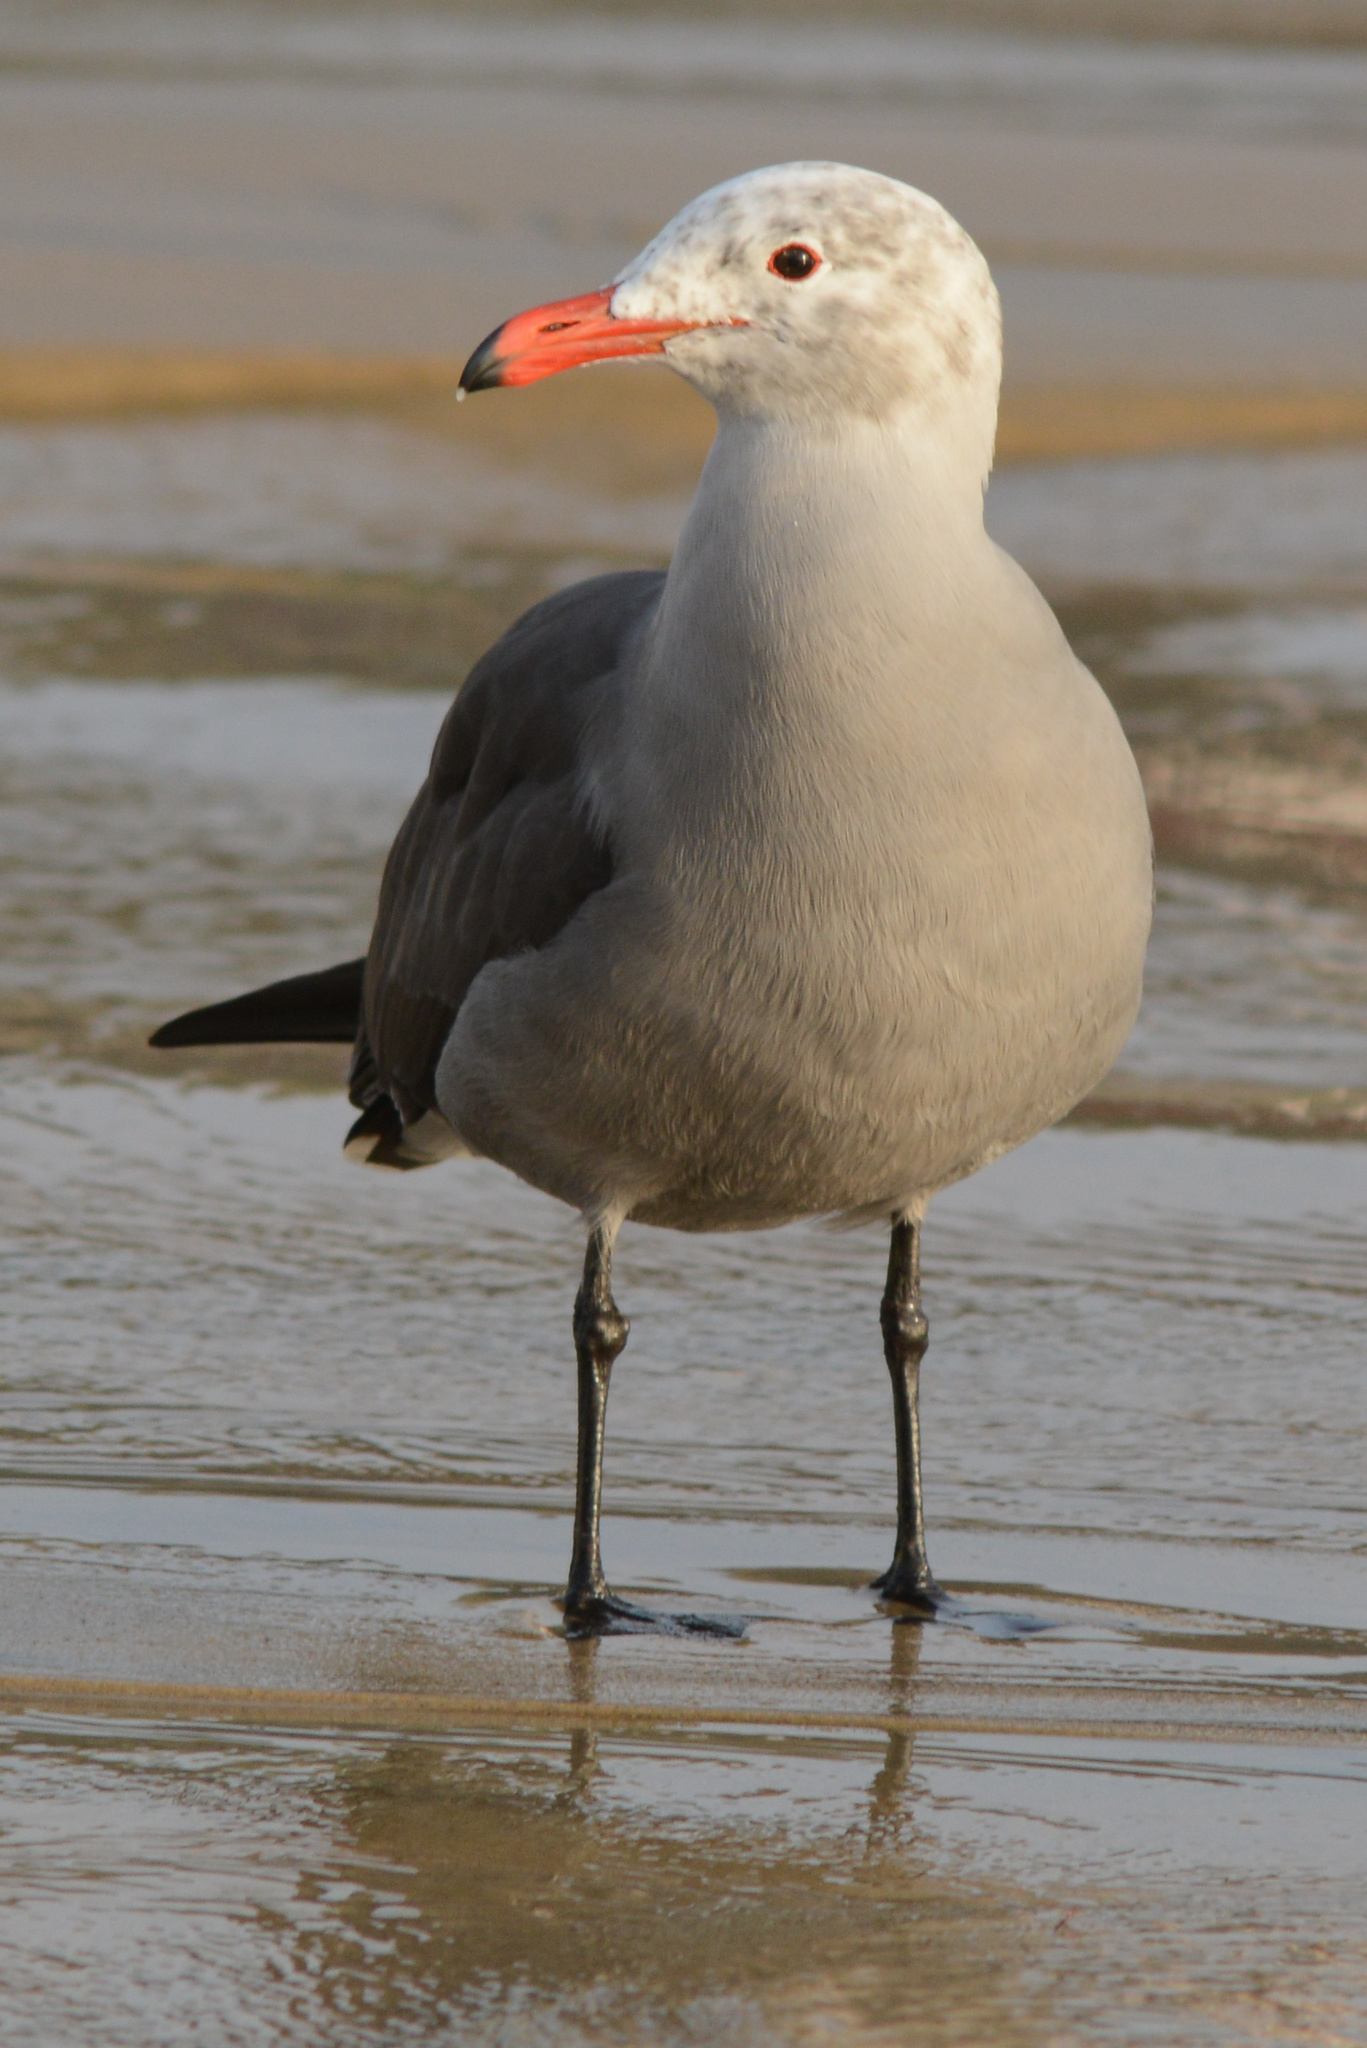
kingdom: Animalia
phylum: Chordata
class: Aves
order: Charadriiformes
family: Laridae
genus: Larus
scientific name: Larus heermanni
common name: Heermann's gull
